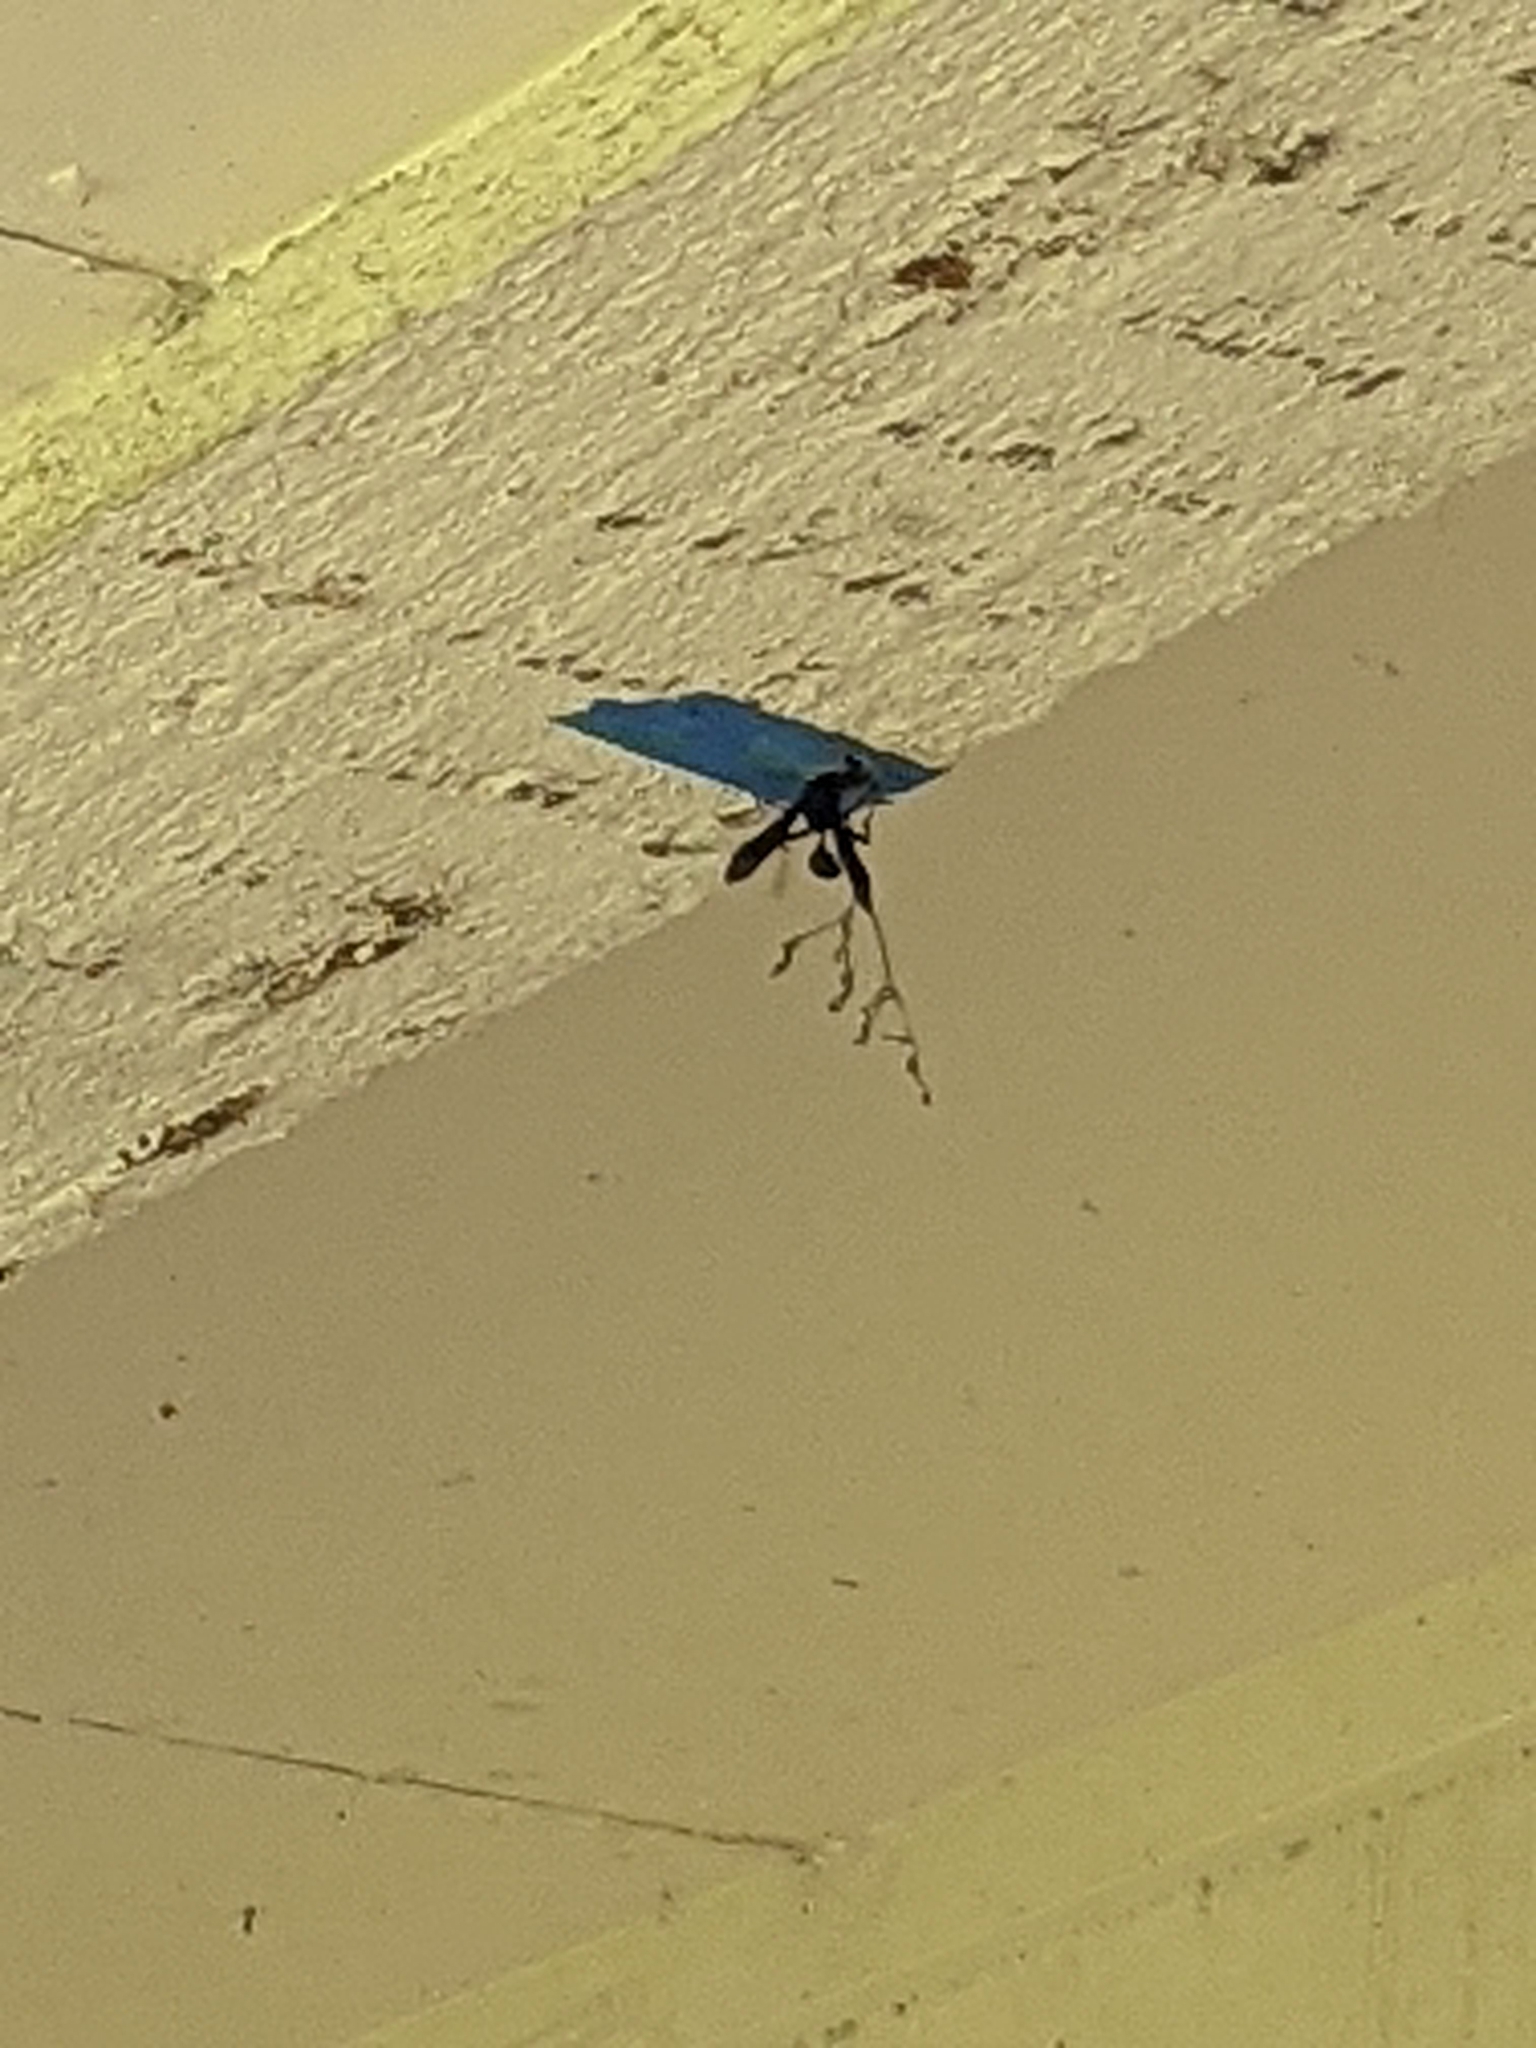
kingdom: Animalia
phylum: Arthropoda
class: Insecta
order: Hymenoptera
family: Sphecidae
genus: Isodontia
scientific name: Isodontia
